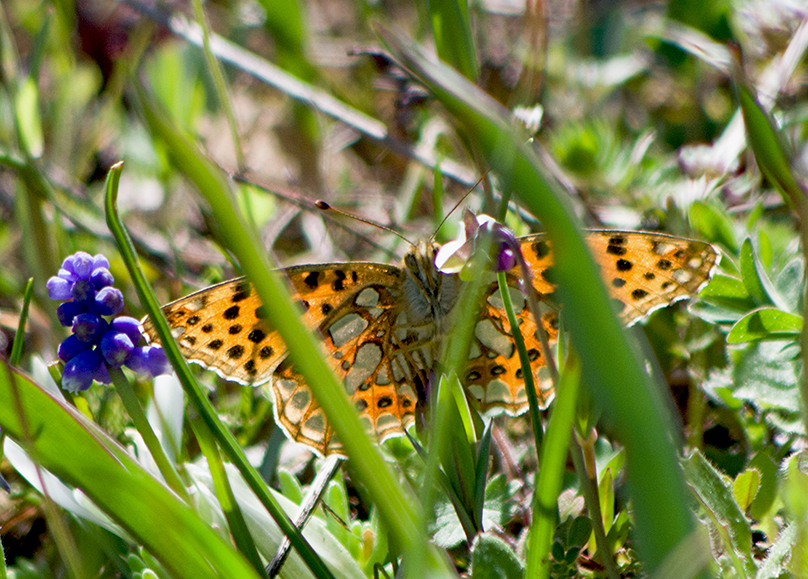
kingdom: Animalia
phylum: Arthropoda
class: Insecta
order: Lepidoptera
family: Nymphalidae
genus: Issoria
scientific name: Issoria lathonia
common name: Queen of spain fritillary
